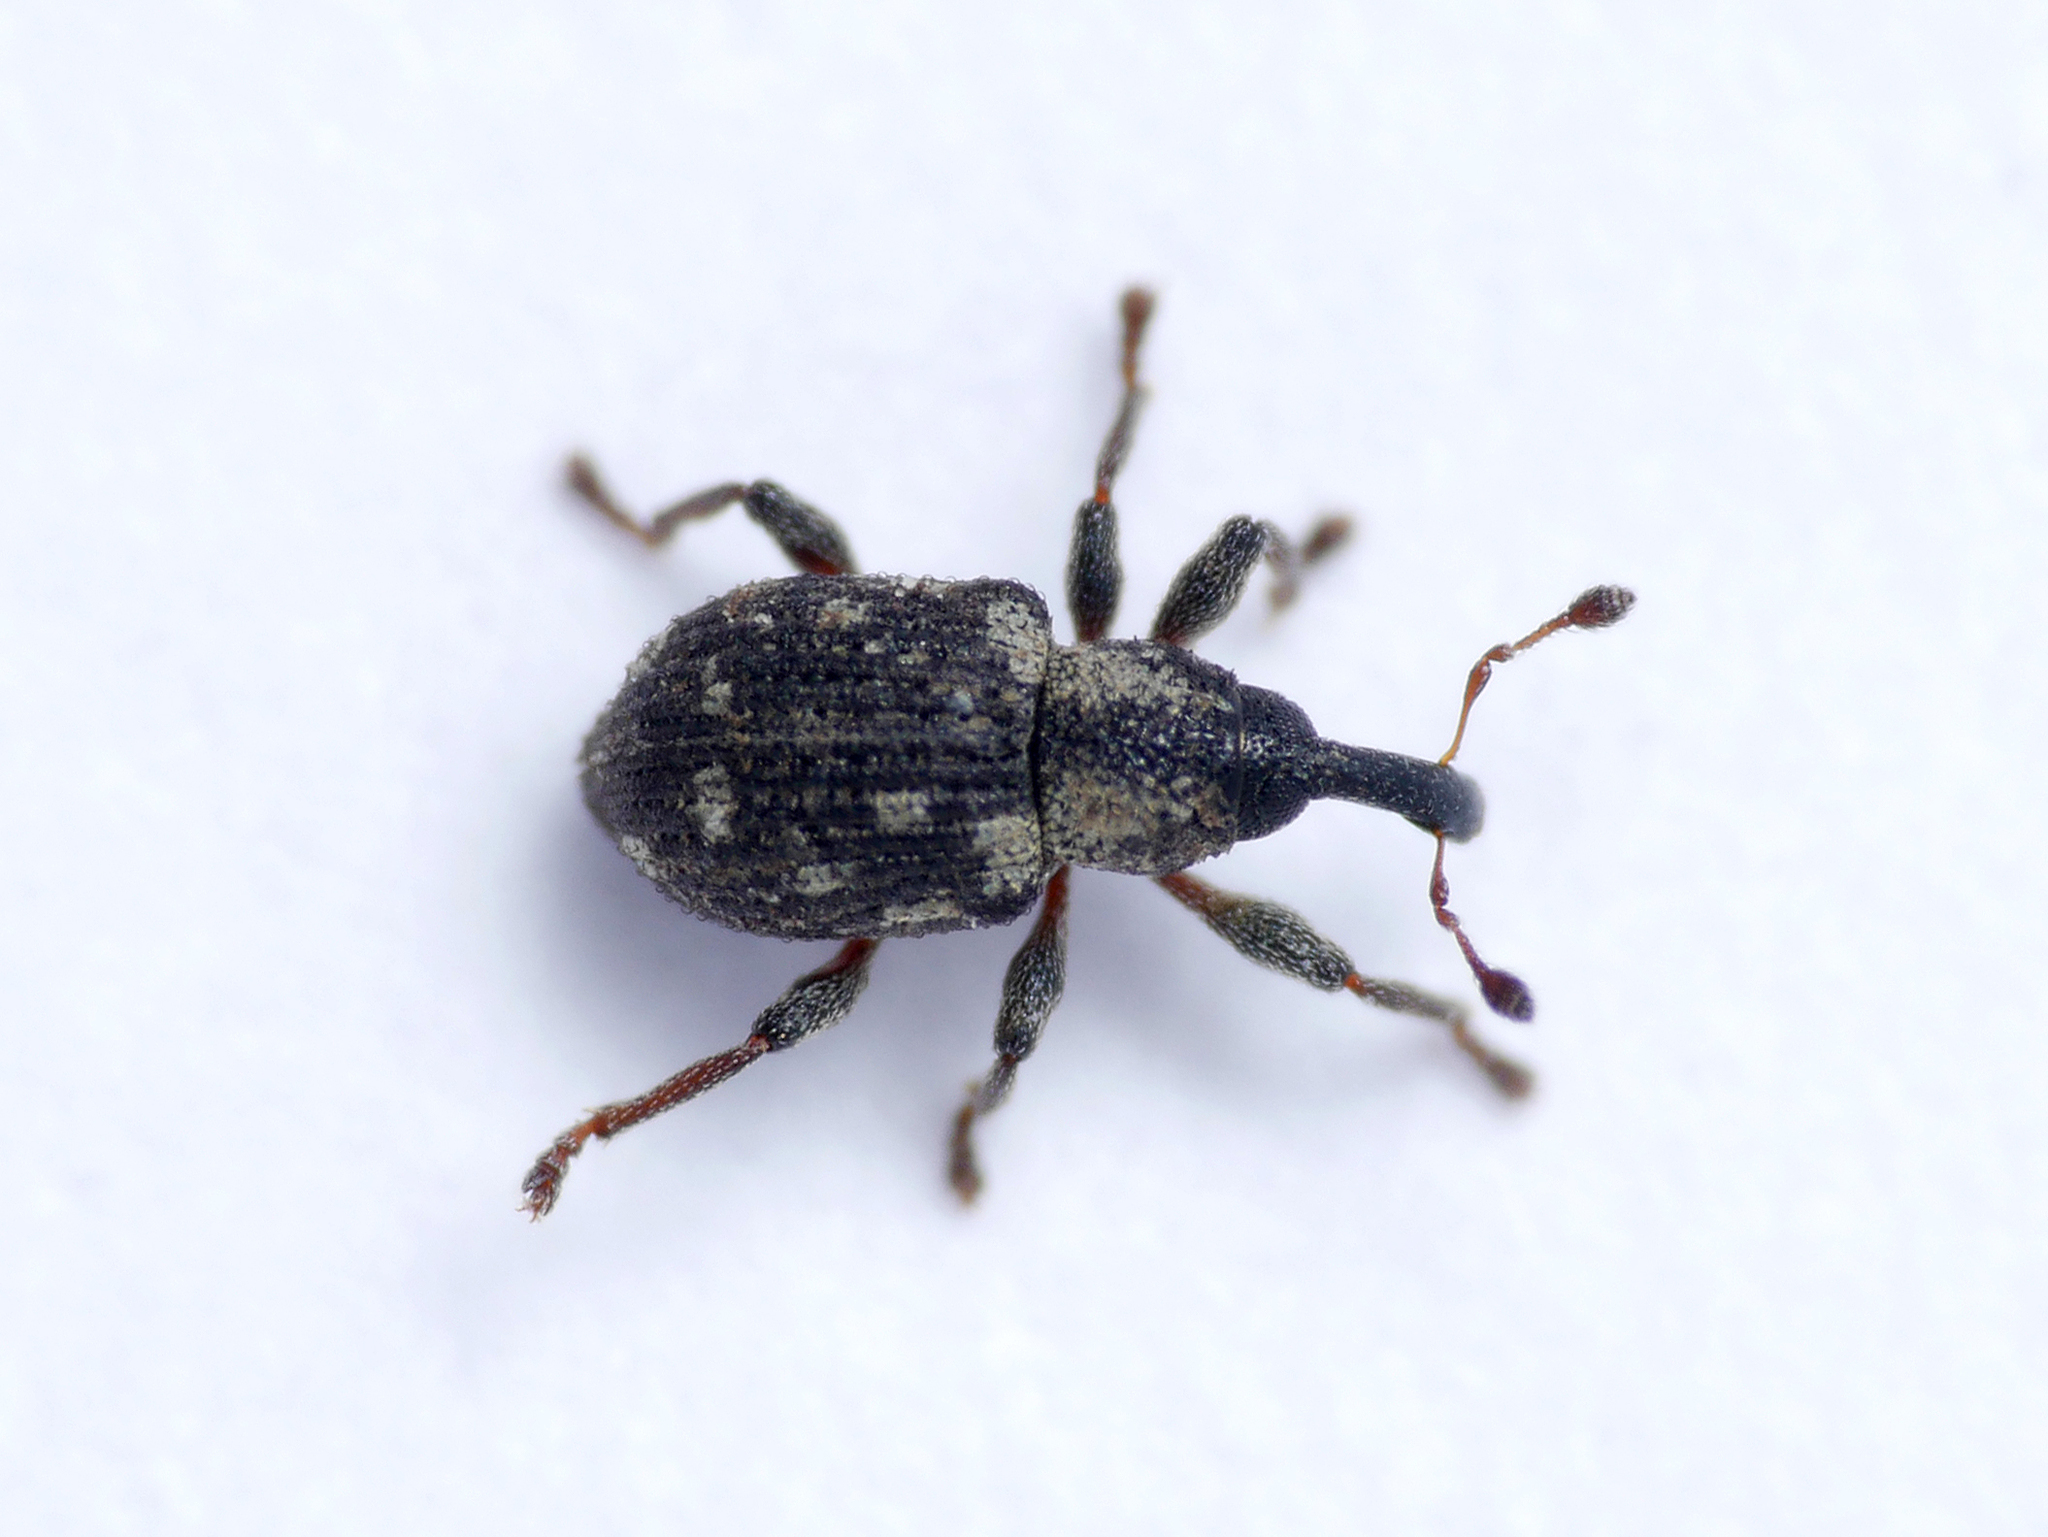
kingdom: Animalia
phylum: Arthropoda
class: Insecta
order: Coleoptera
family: Brachyceridae
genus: Tanysphyrus
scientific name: Tanysphyrus lemnae
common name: Duckweed weevil
